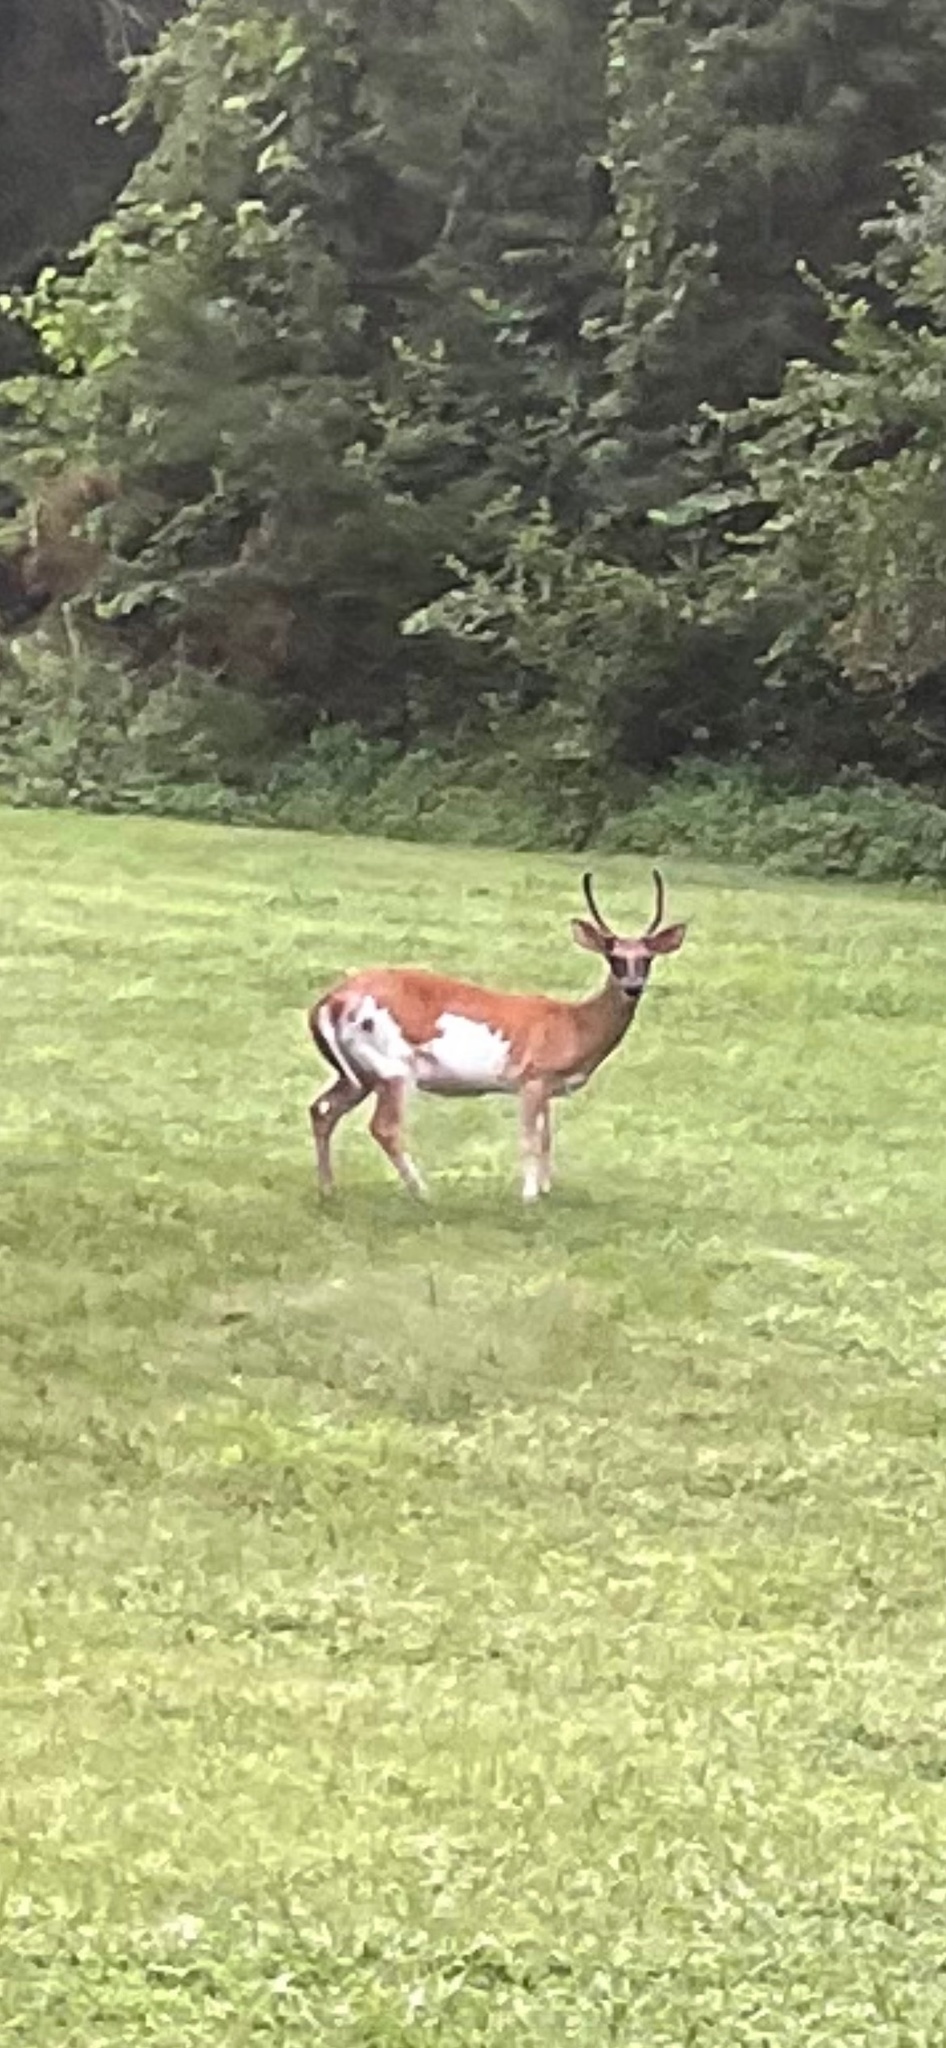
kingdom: Animalia
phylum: Chordata
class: Mammalia
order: Artiodactyla
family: Cervidae
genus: Odocoileus
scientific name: Odocoileus virginianus
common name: White-tailed deer
